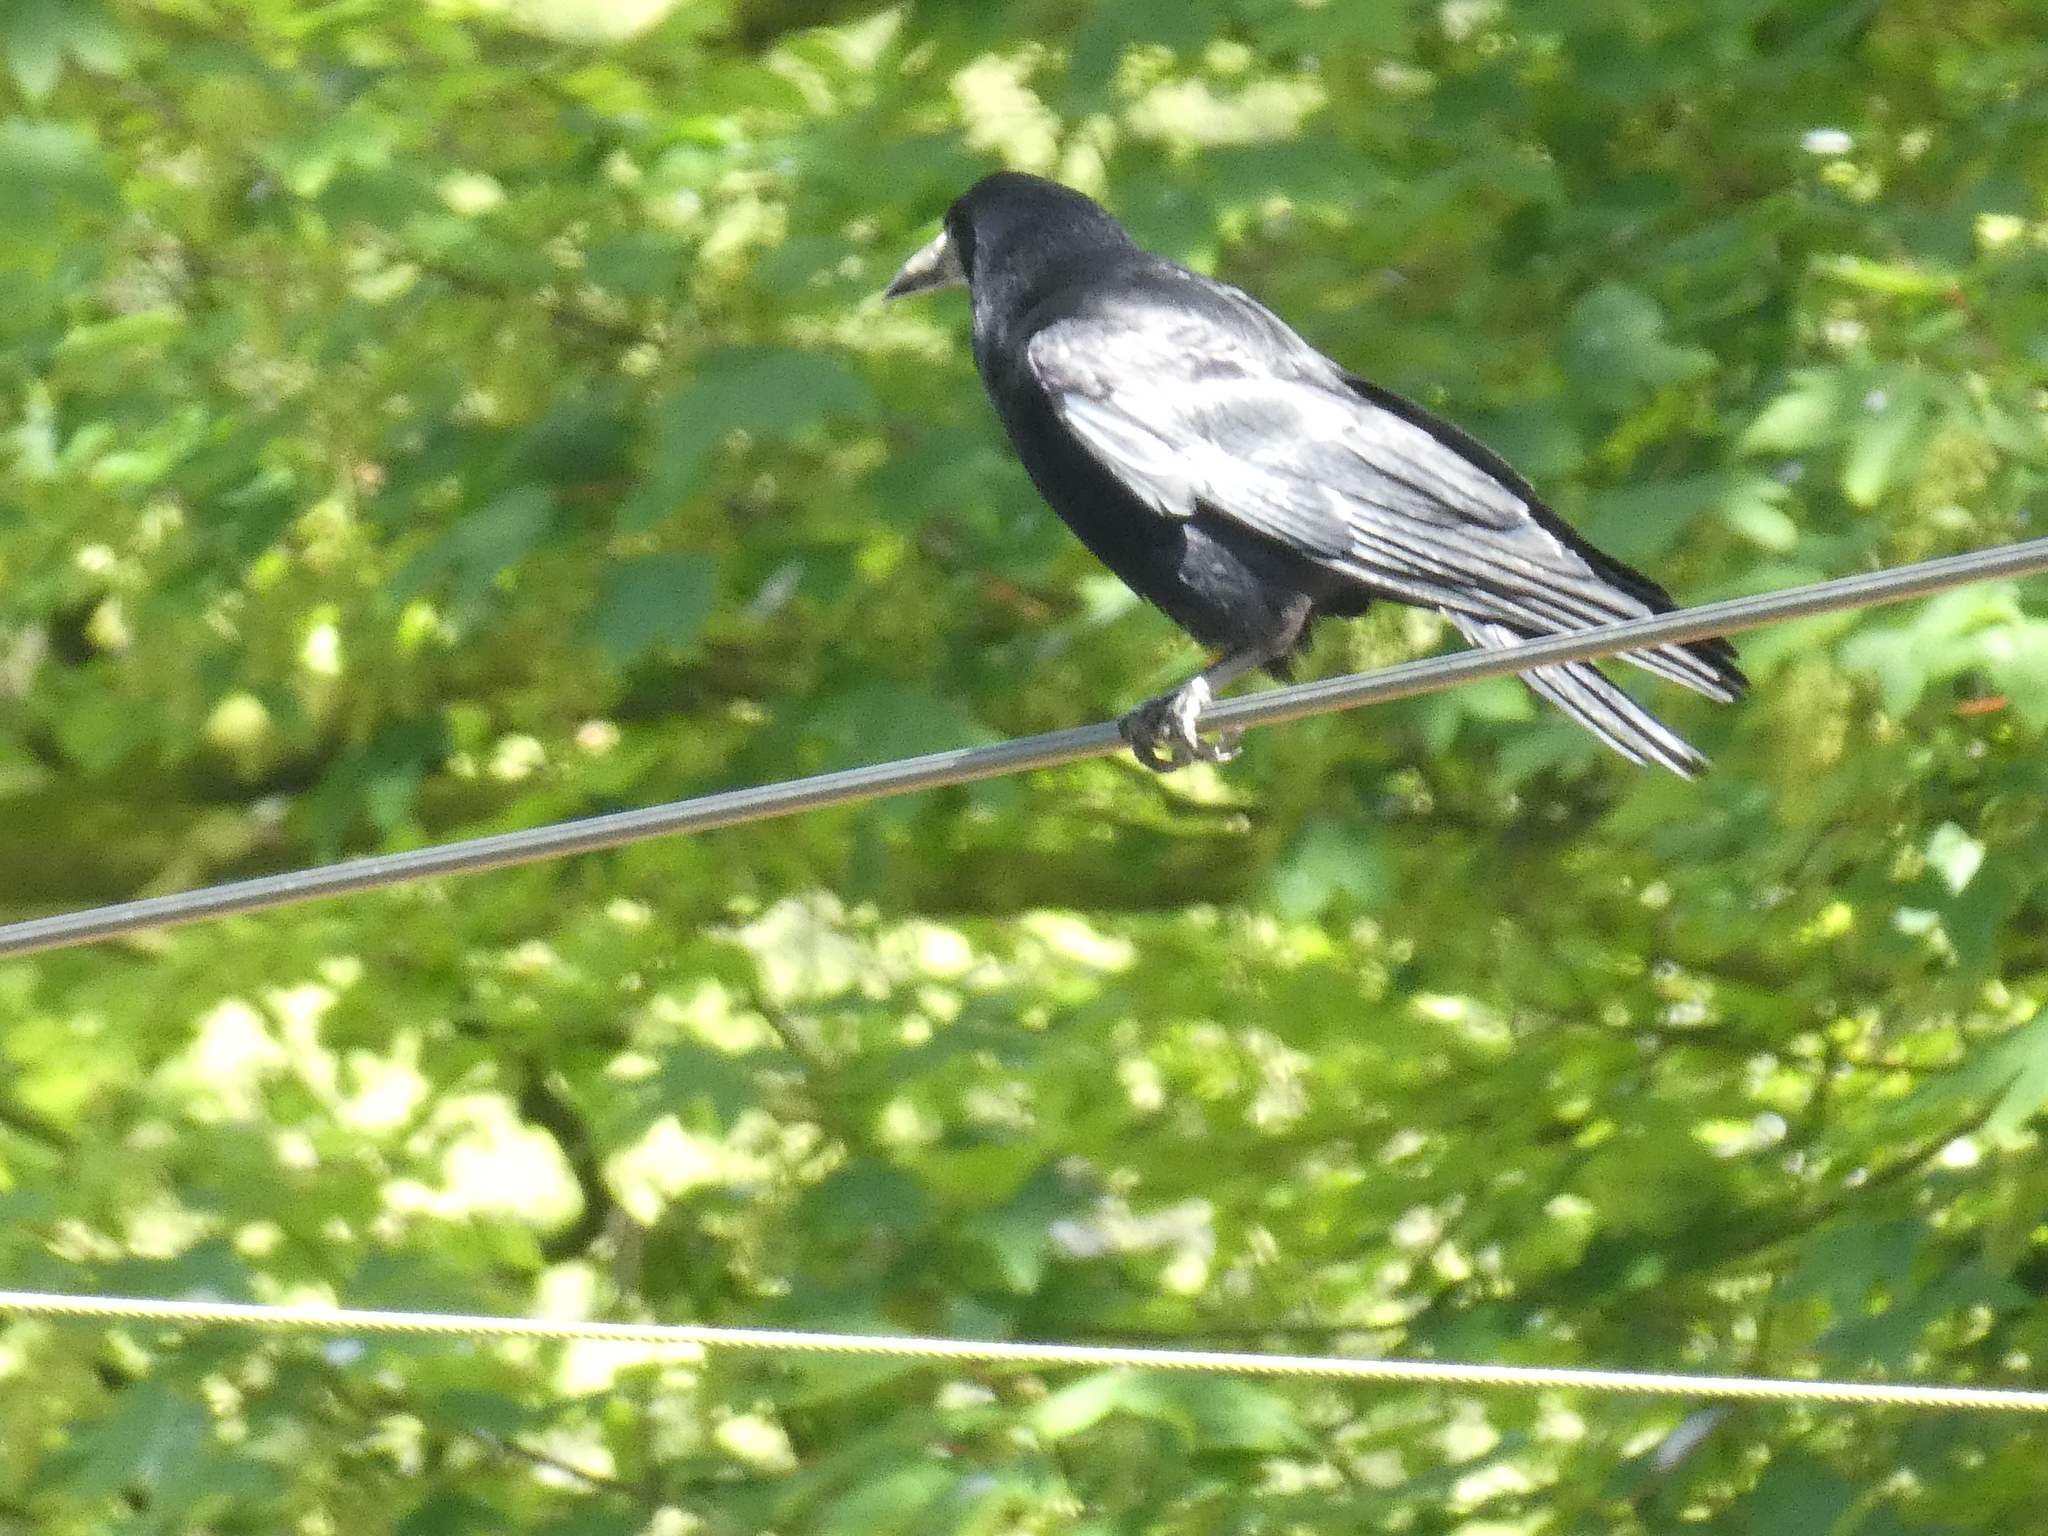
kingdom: Animalia
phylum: Chordata
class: Aves
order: Passeriformes
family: Corvidae
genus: Corvus
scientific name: Corvus frugilegus
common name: Rook
